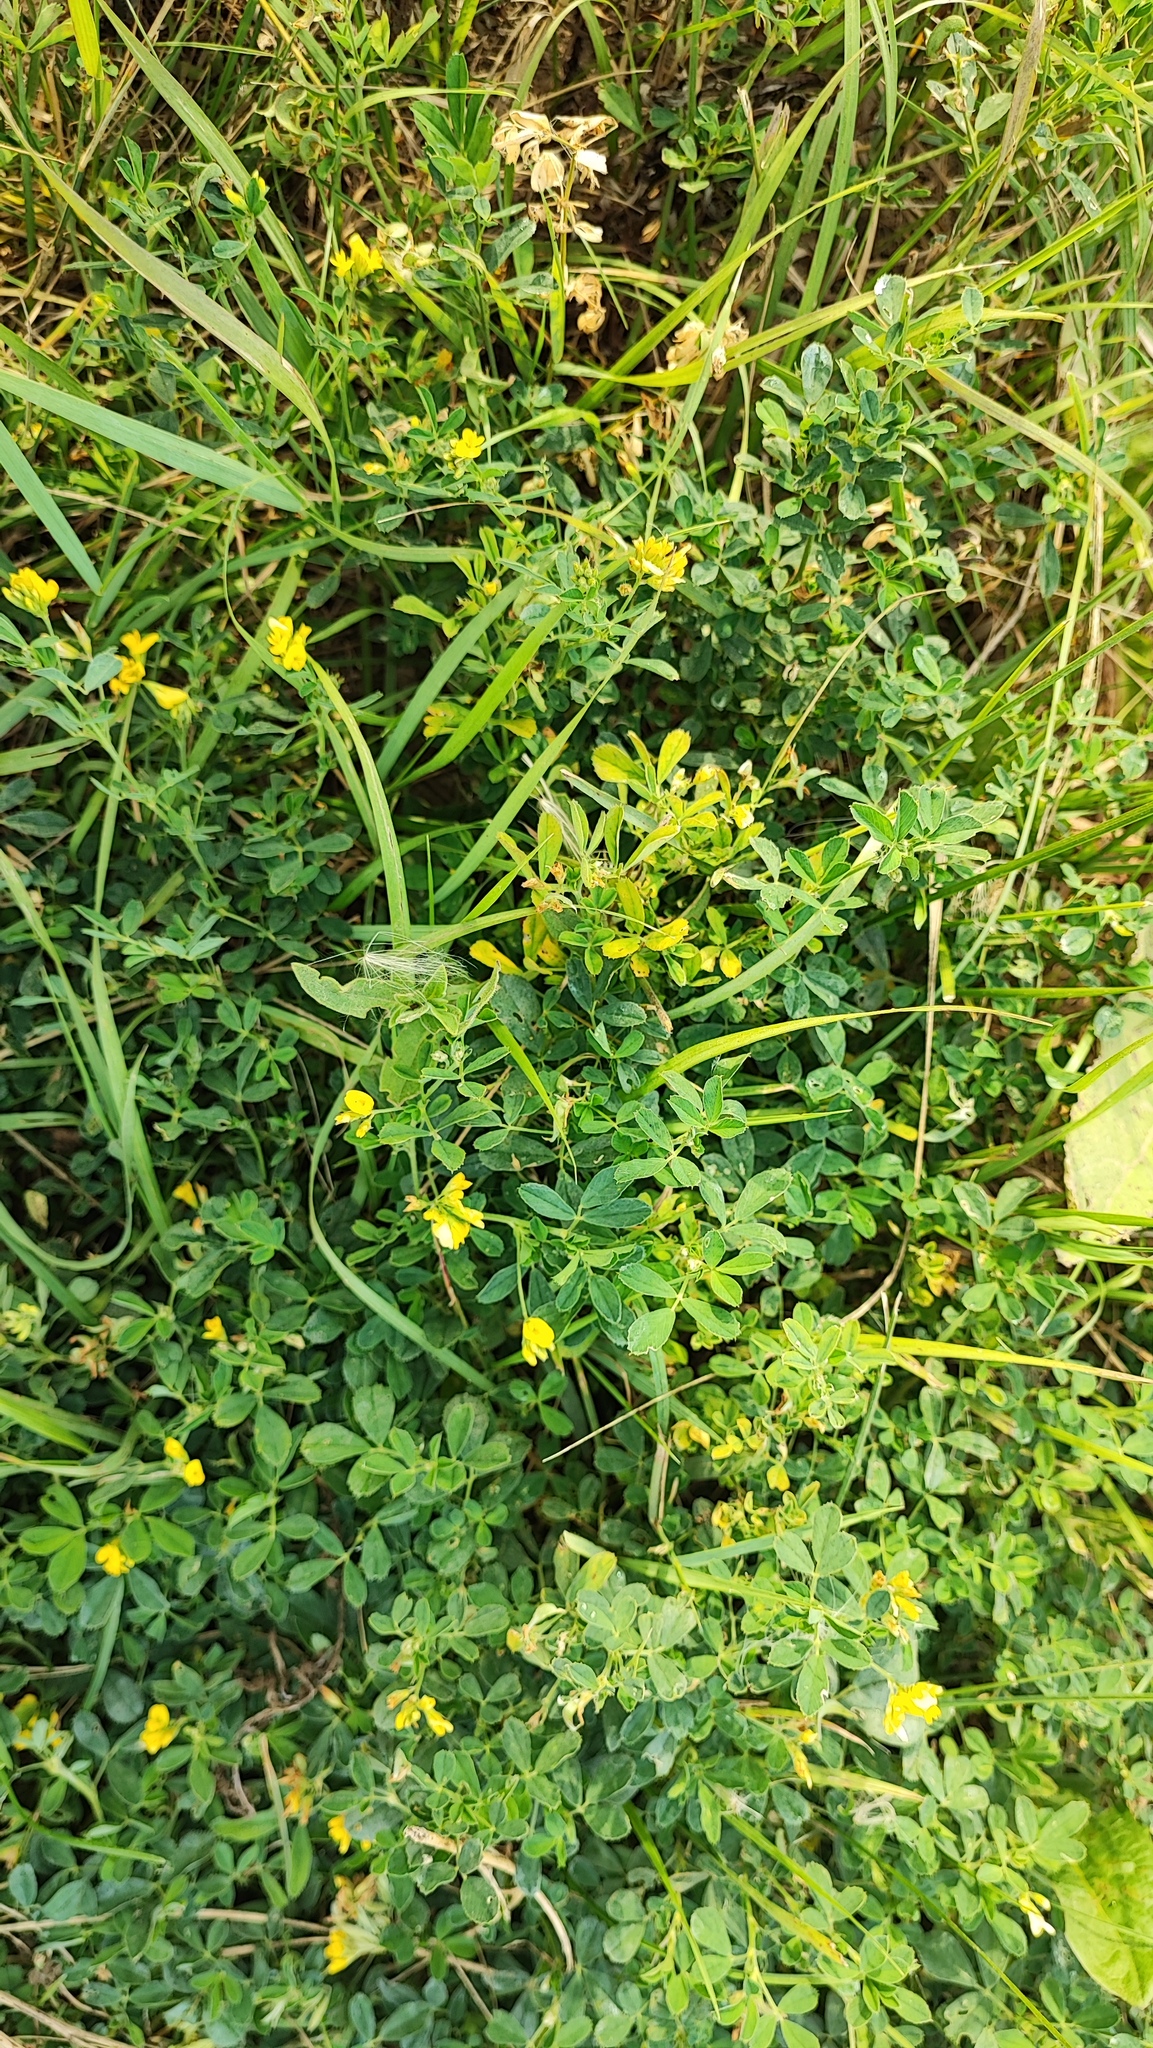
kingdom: Plantae
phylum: Tracheophyta
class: Magnoliopsida
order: Fabales
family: Fabaceae
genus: Medicago
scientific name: Medicago falcata
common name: Sickle medick
